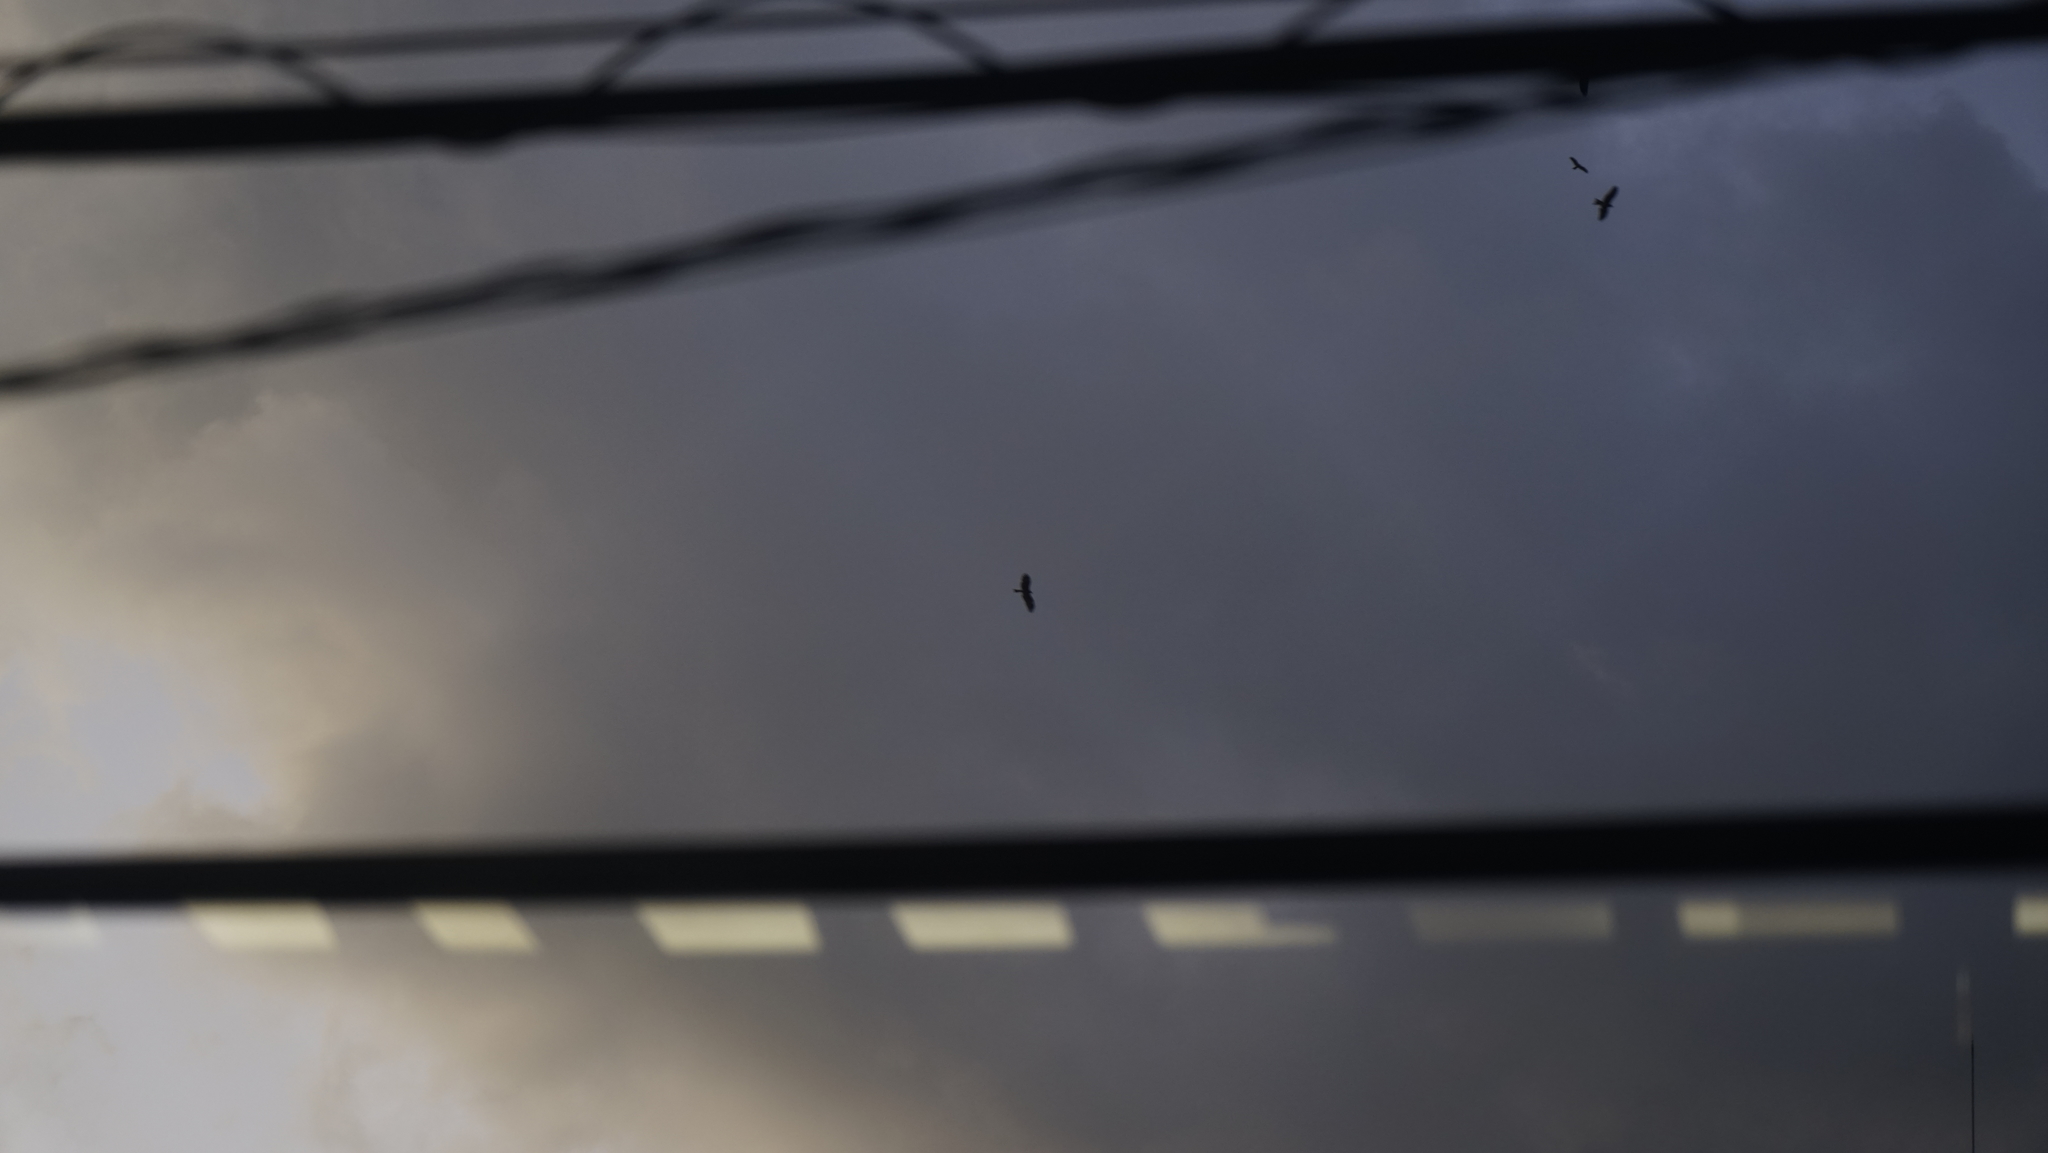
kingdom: Animalia
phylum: Chordata
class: Aves
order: Accipitriformes
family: Accipitridae
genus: Milvus
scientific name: Milvus migrans
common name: Black kite
